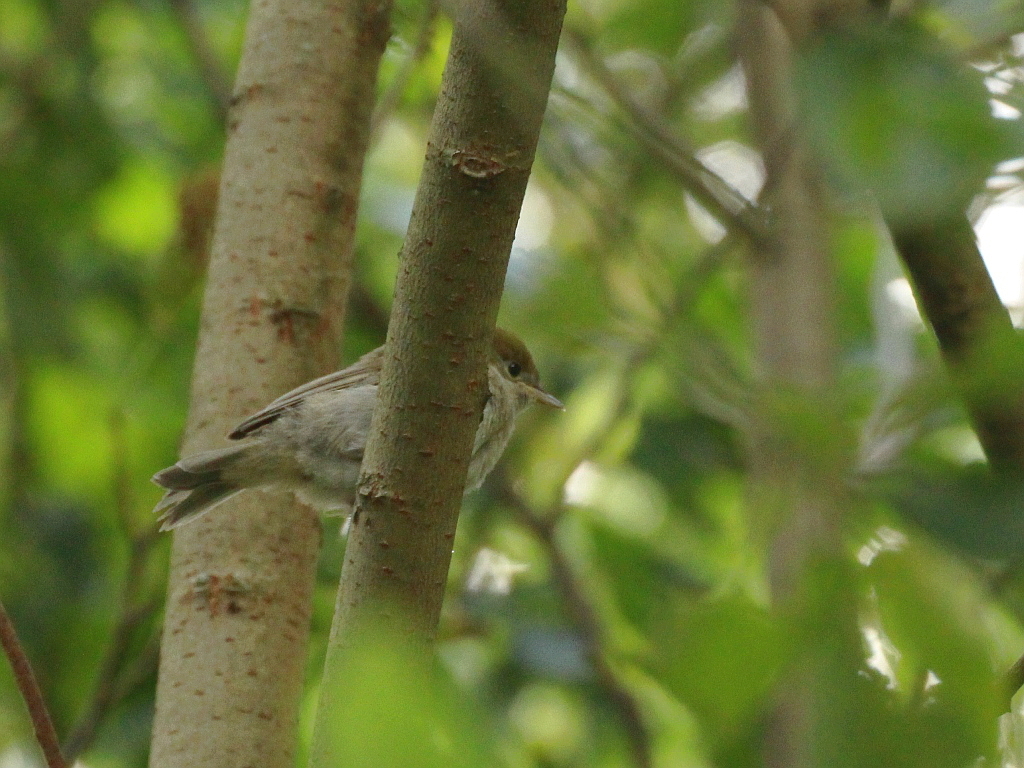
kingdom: Animalia
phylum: Chordata
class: Aves
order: Passeriformes
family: Sylviidae
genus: Sylvia
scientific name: Sylvia atricapilla
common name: Eurasian blackcap
